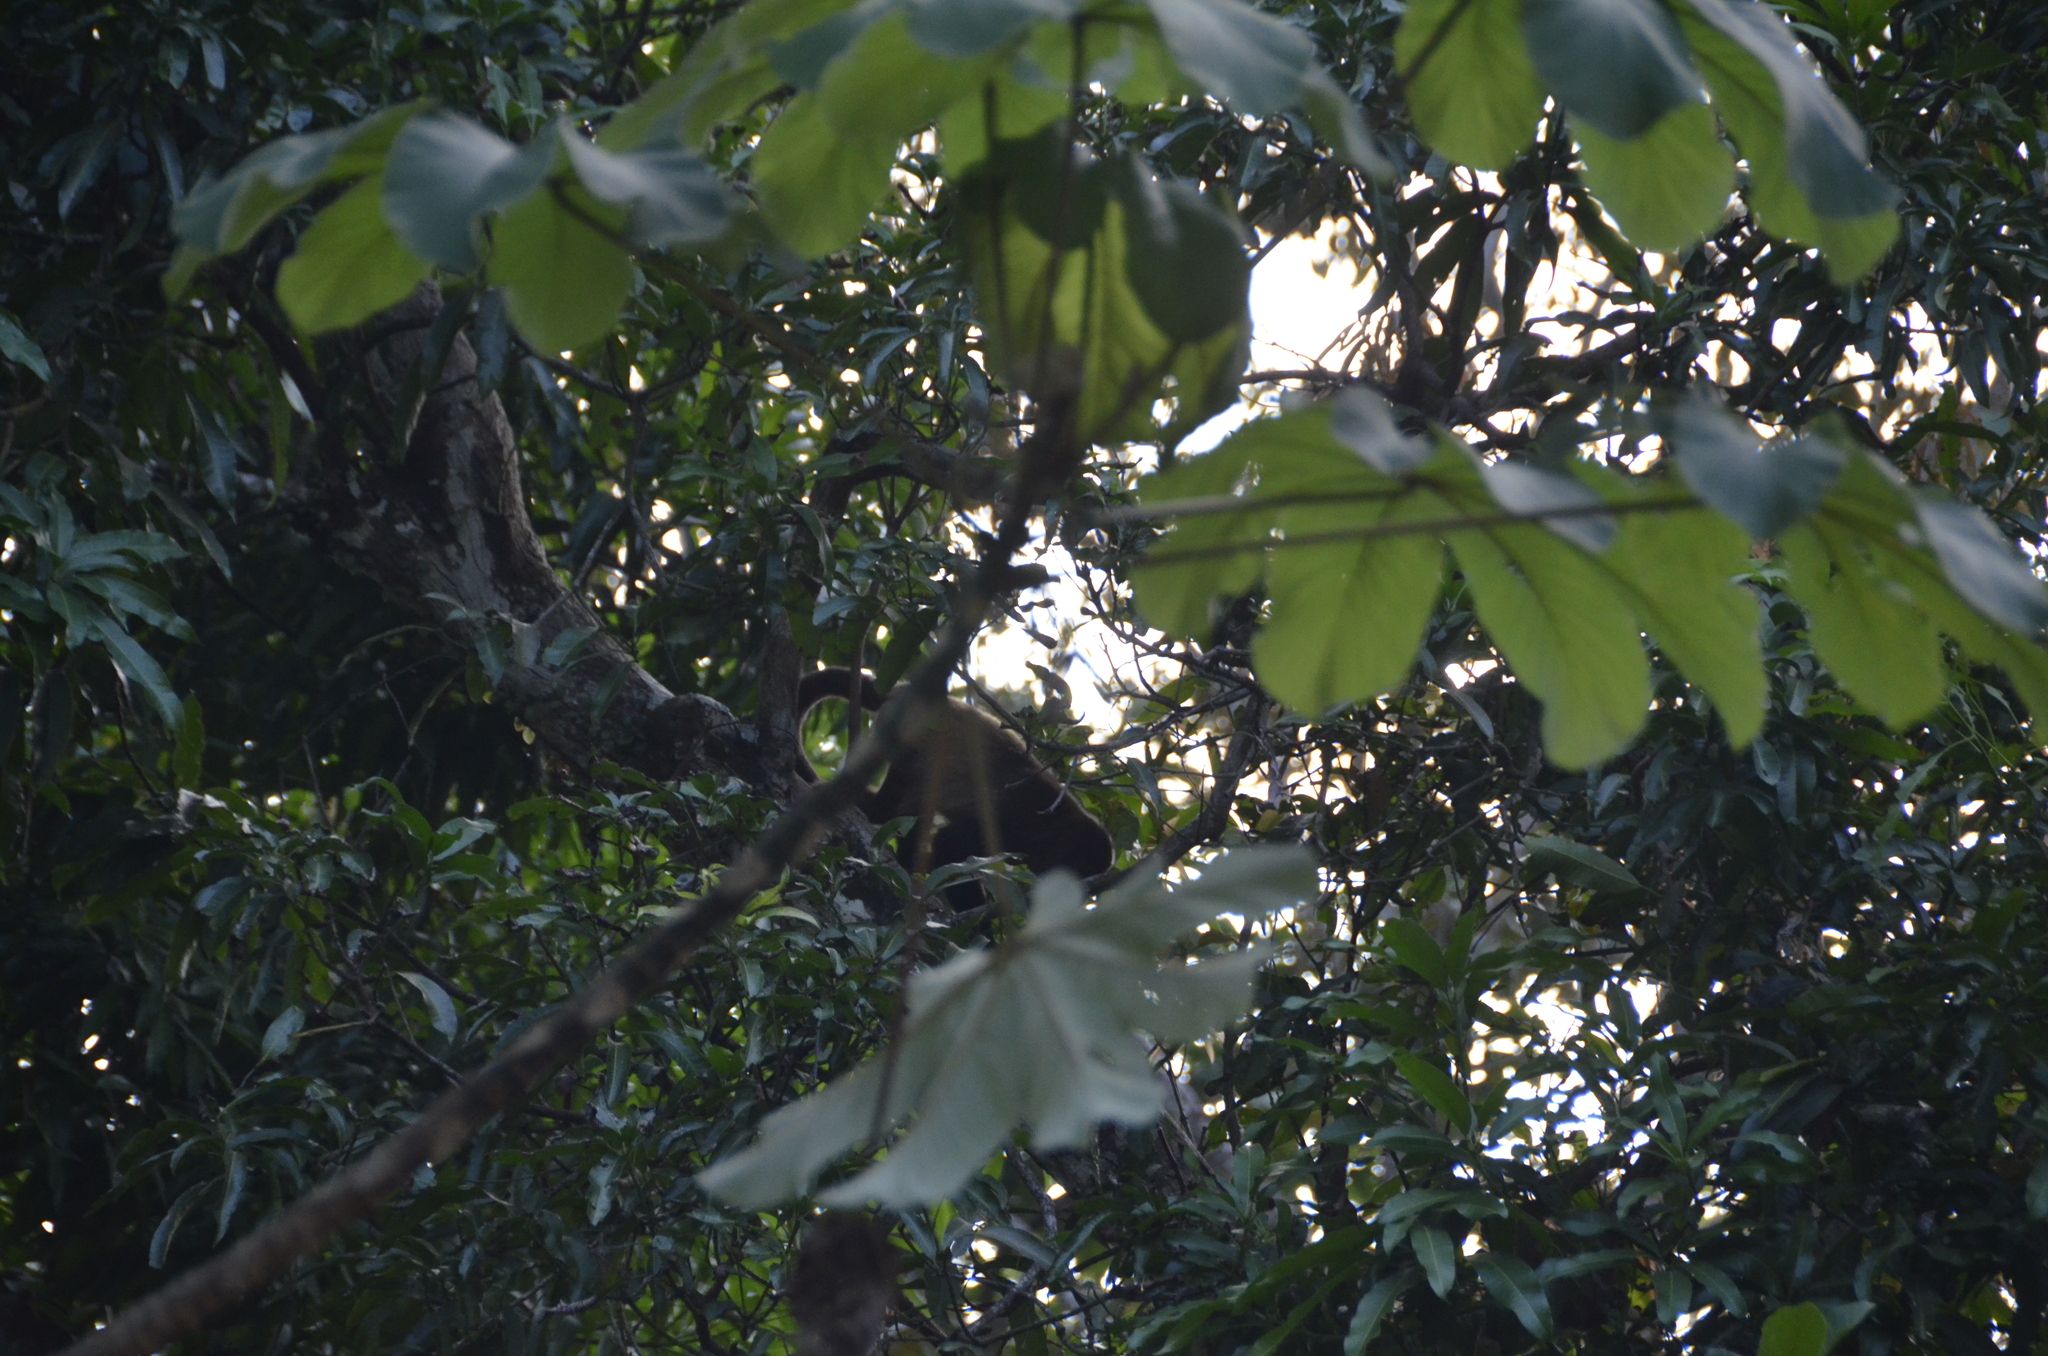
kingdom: Animalia
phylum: Chordata
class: Mammalia
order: Primates
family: Atelidae
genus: Alouatta
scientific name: Alouatta palliata
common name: Mantled howler
